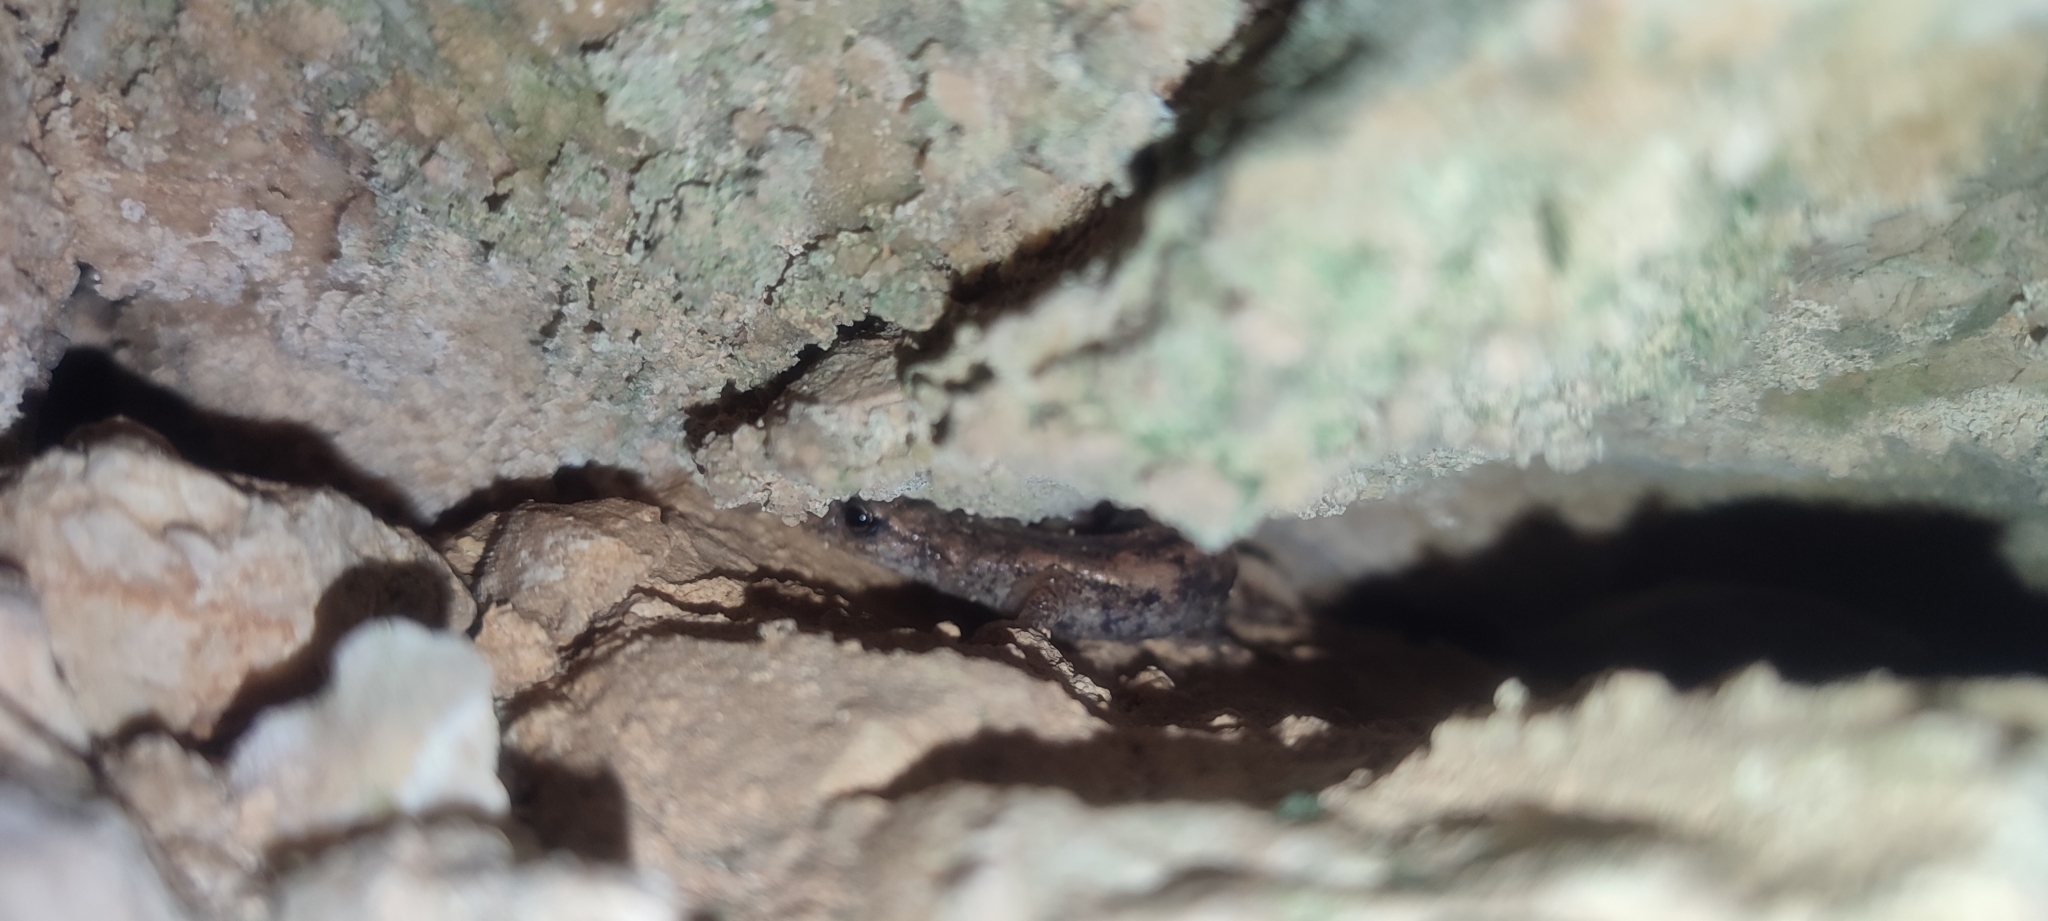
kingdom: Animalia
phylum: Chordata
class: Amphibia
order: Caudata
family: Plethodontidae
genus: Speleomantes
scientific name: Speleomantes strinatii
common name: French cave salamander
